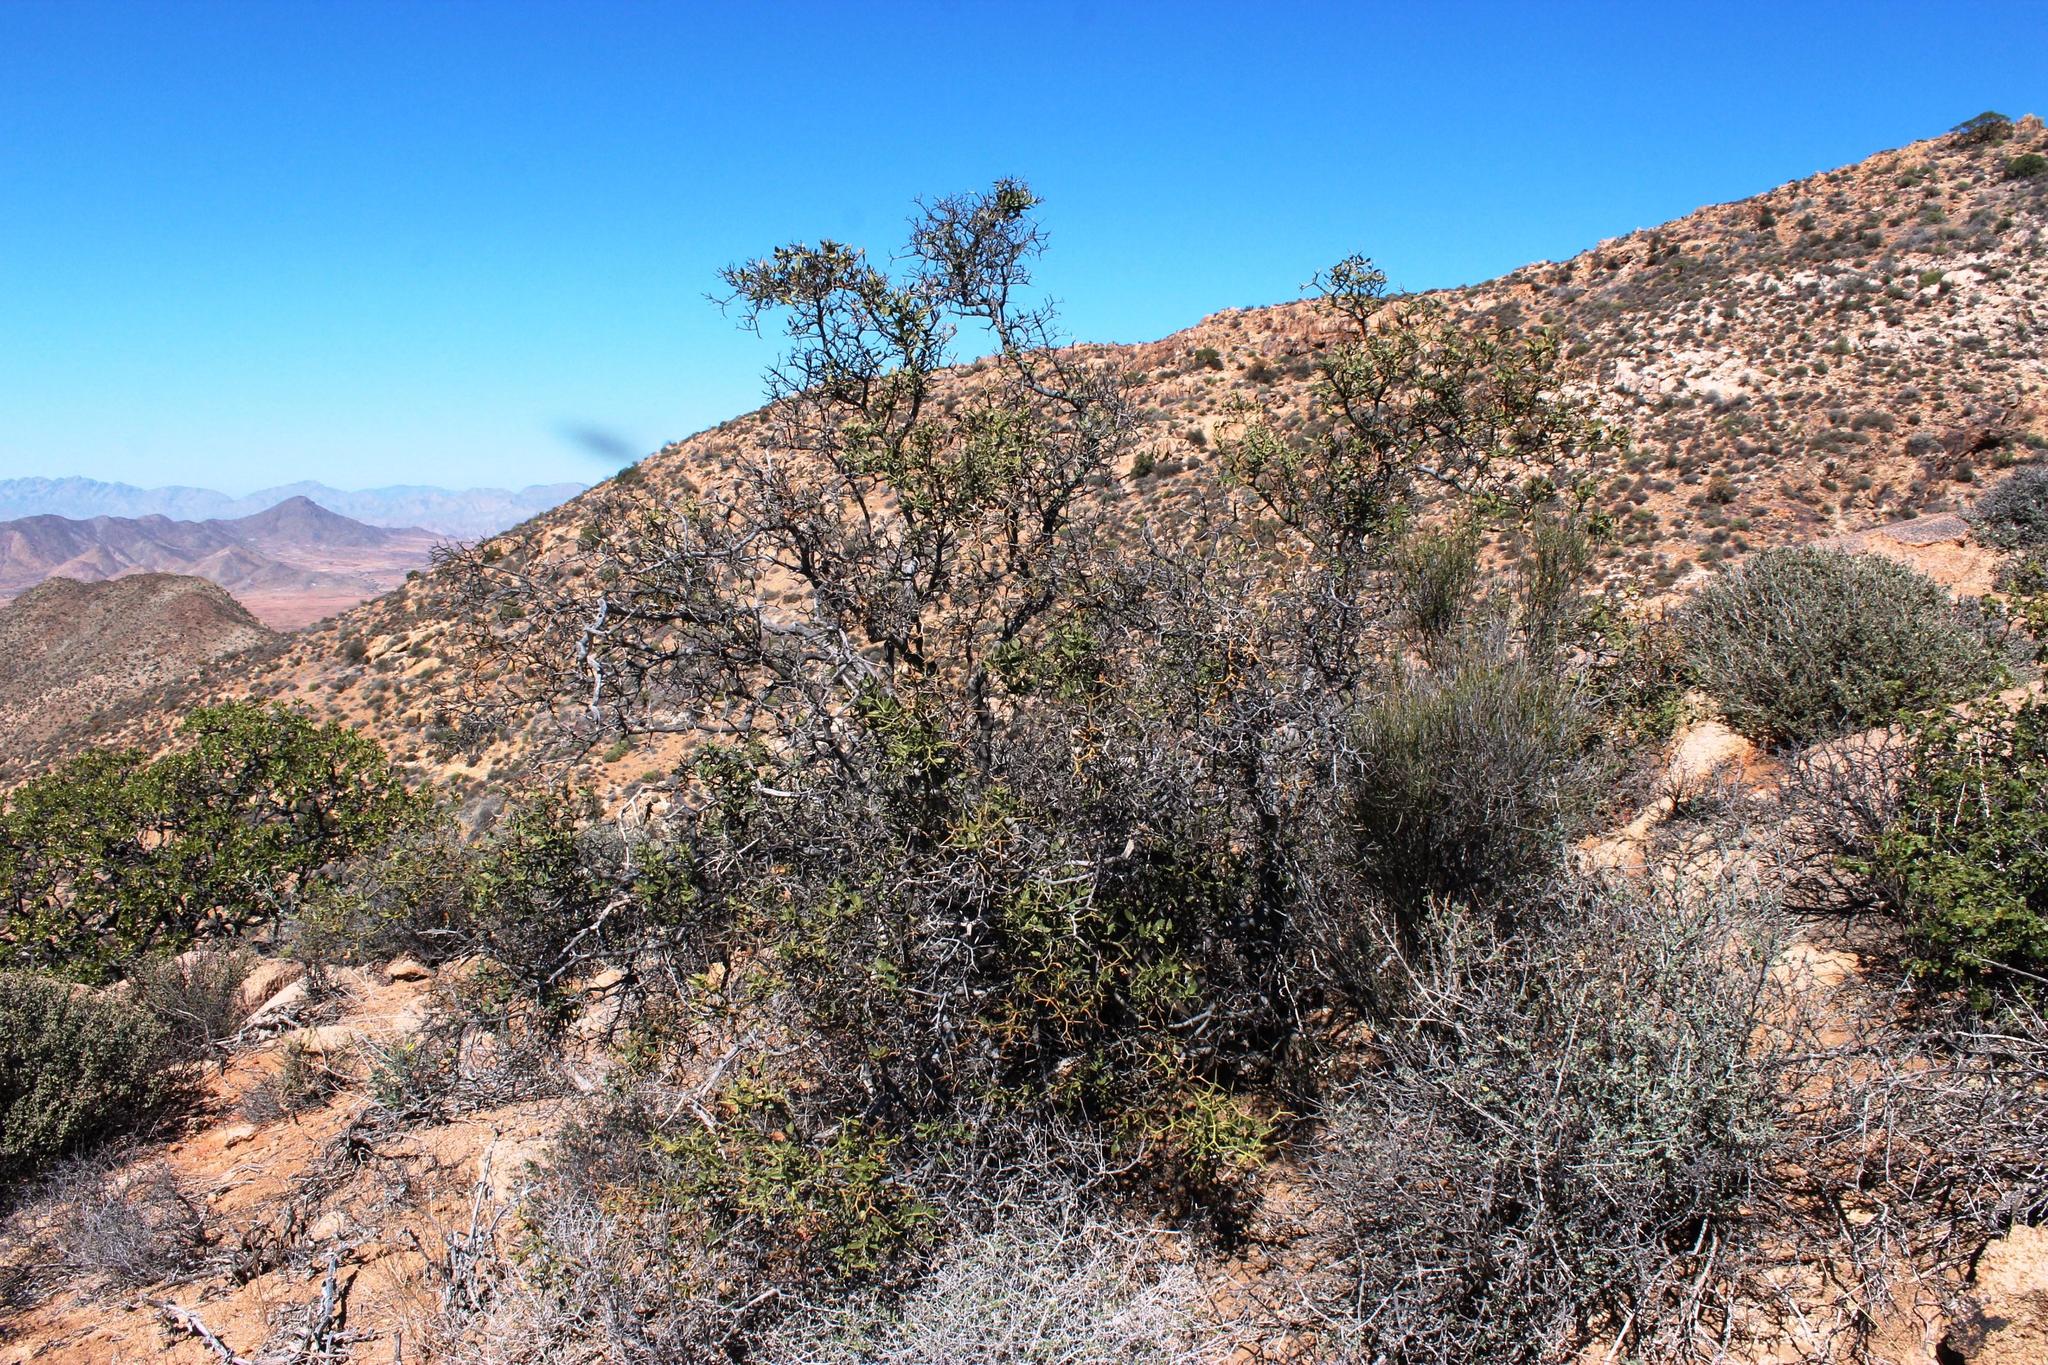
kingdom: Plantae
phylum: Tracheophyta
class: Magnoliopsida
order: Gentianales
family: Apocynaceae
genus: Carissa
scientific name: Carissa haematocarpa
